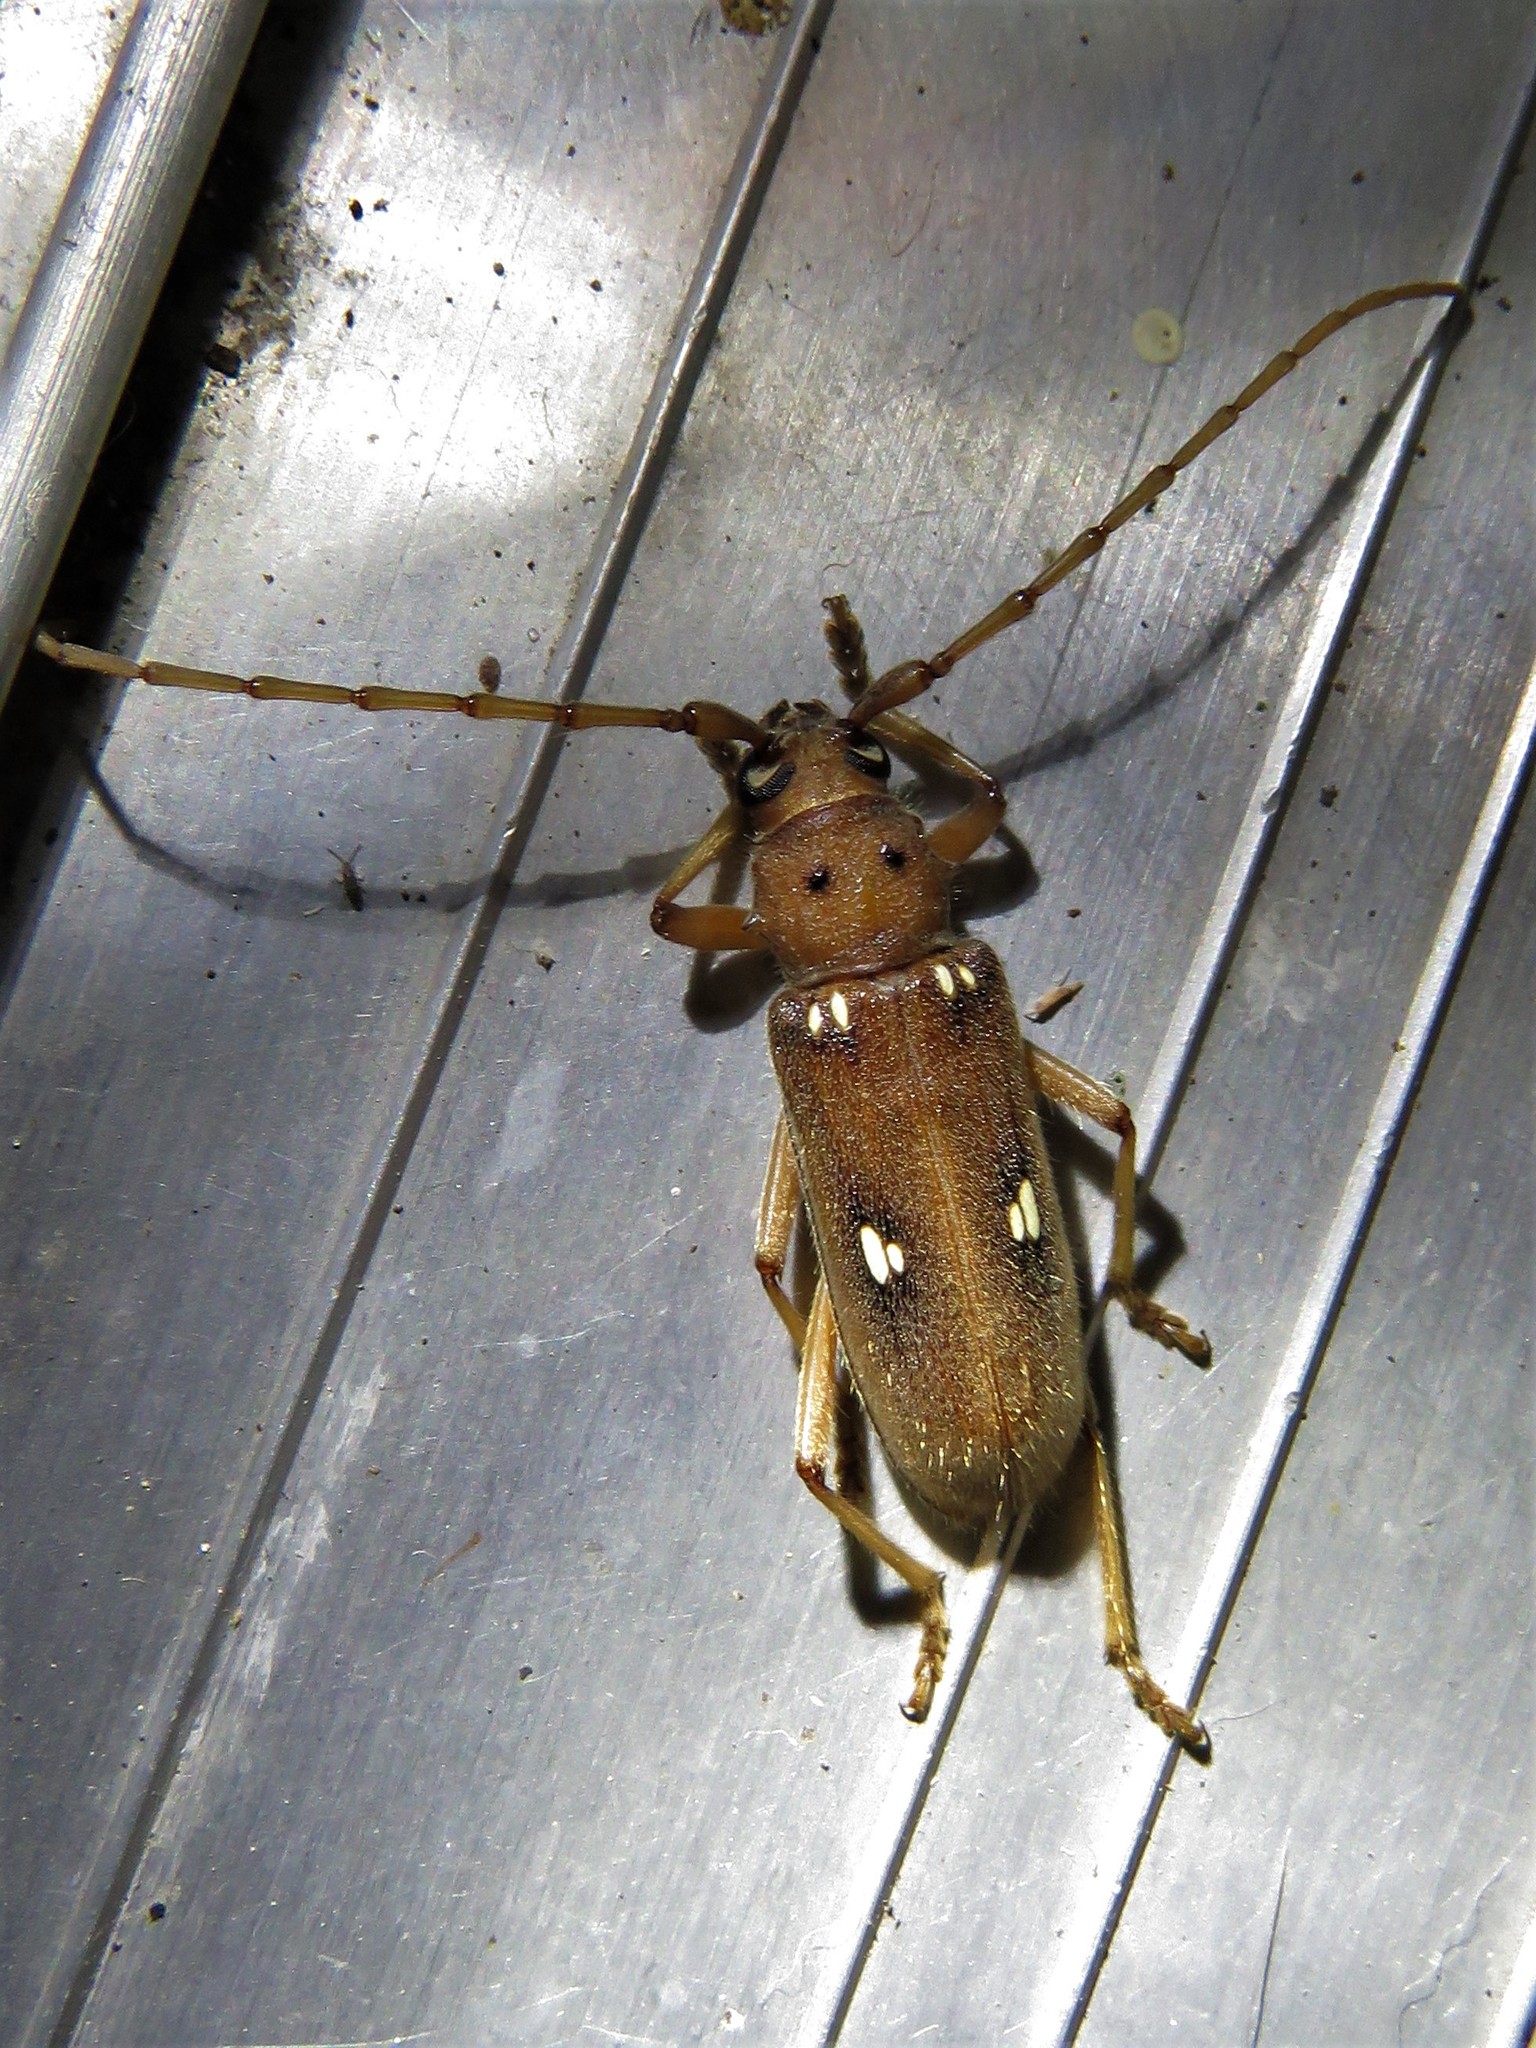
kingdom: Animalia
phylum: Arthropoda
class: Insecta
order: Coleoptera
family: Cerambycidae
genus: Eburia
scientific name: Eburia haldemani
